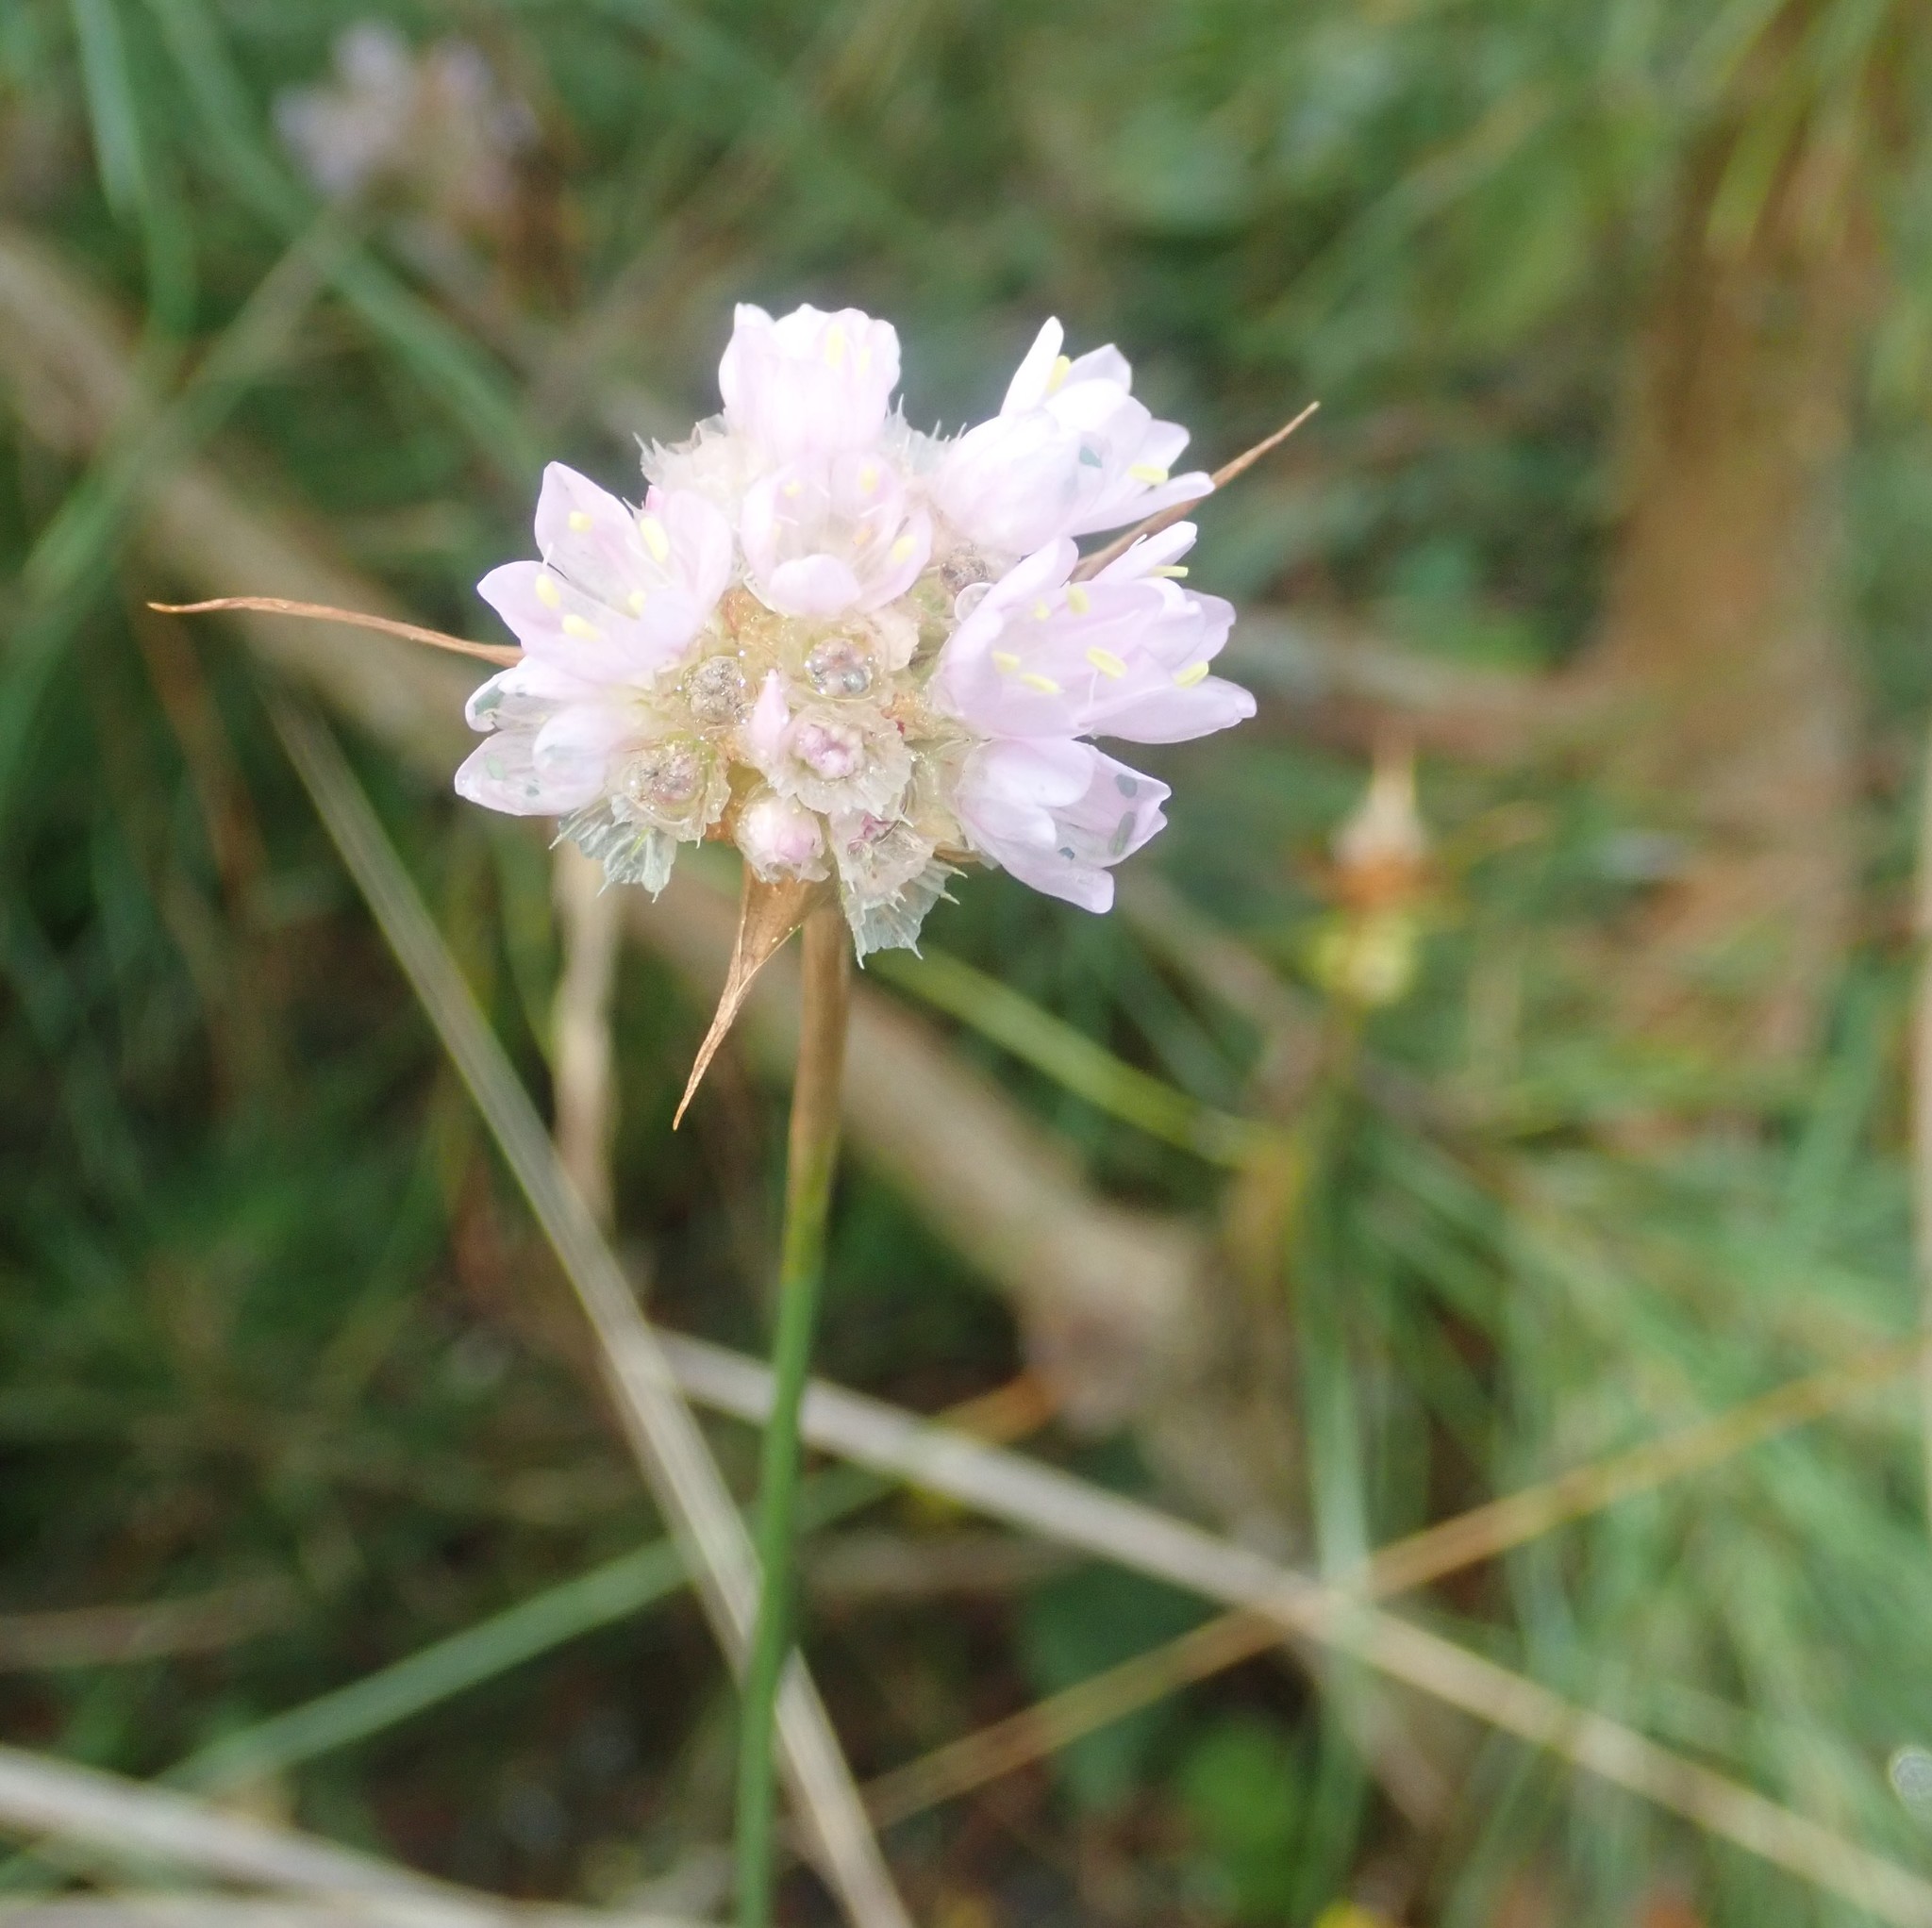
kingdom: Plantae
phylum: Tracheophyta
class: Magnoliopsida
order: Caryophyllales
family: Plumbaginaceae
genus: Armeria
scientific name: Armeria maritima
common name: Thrift
